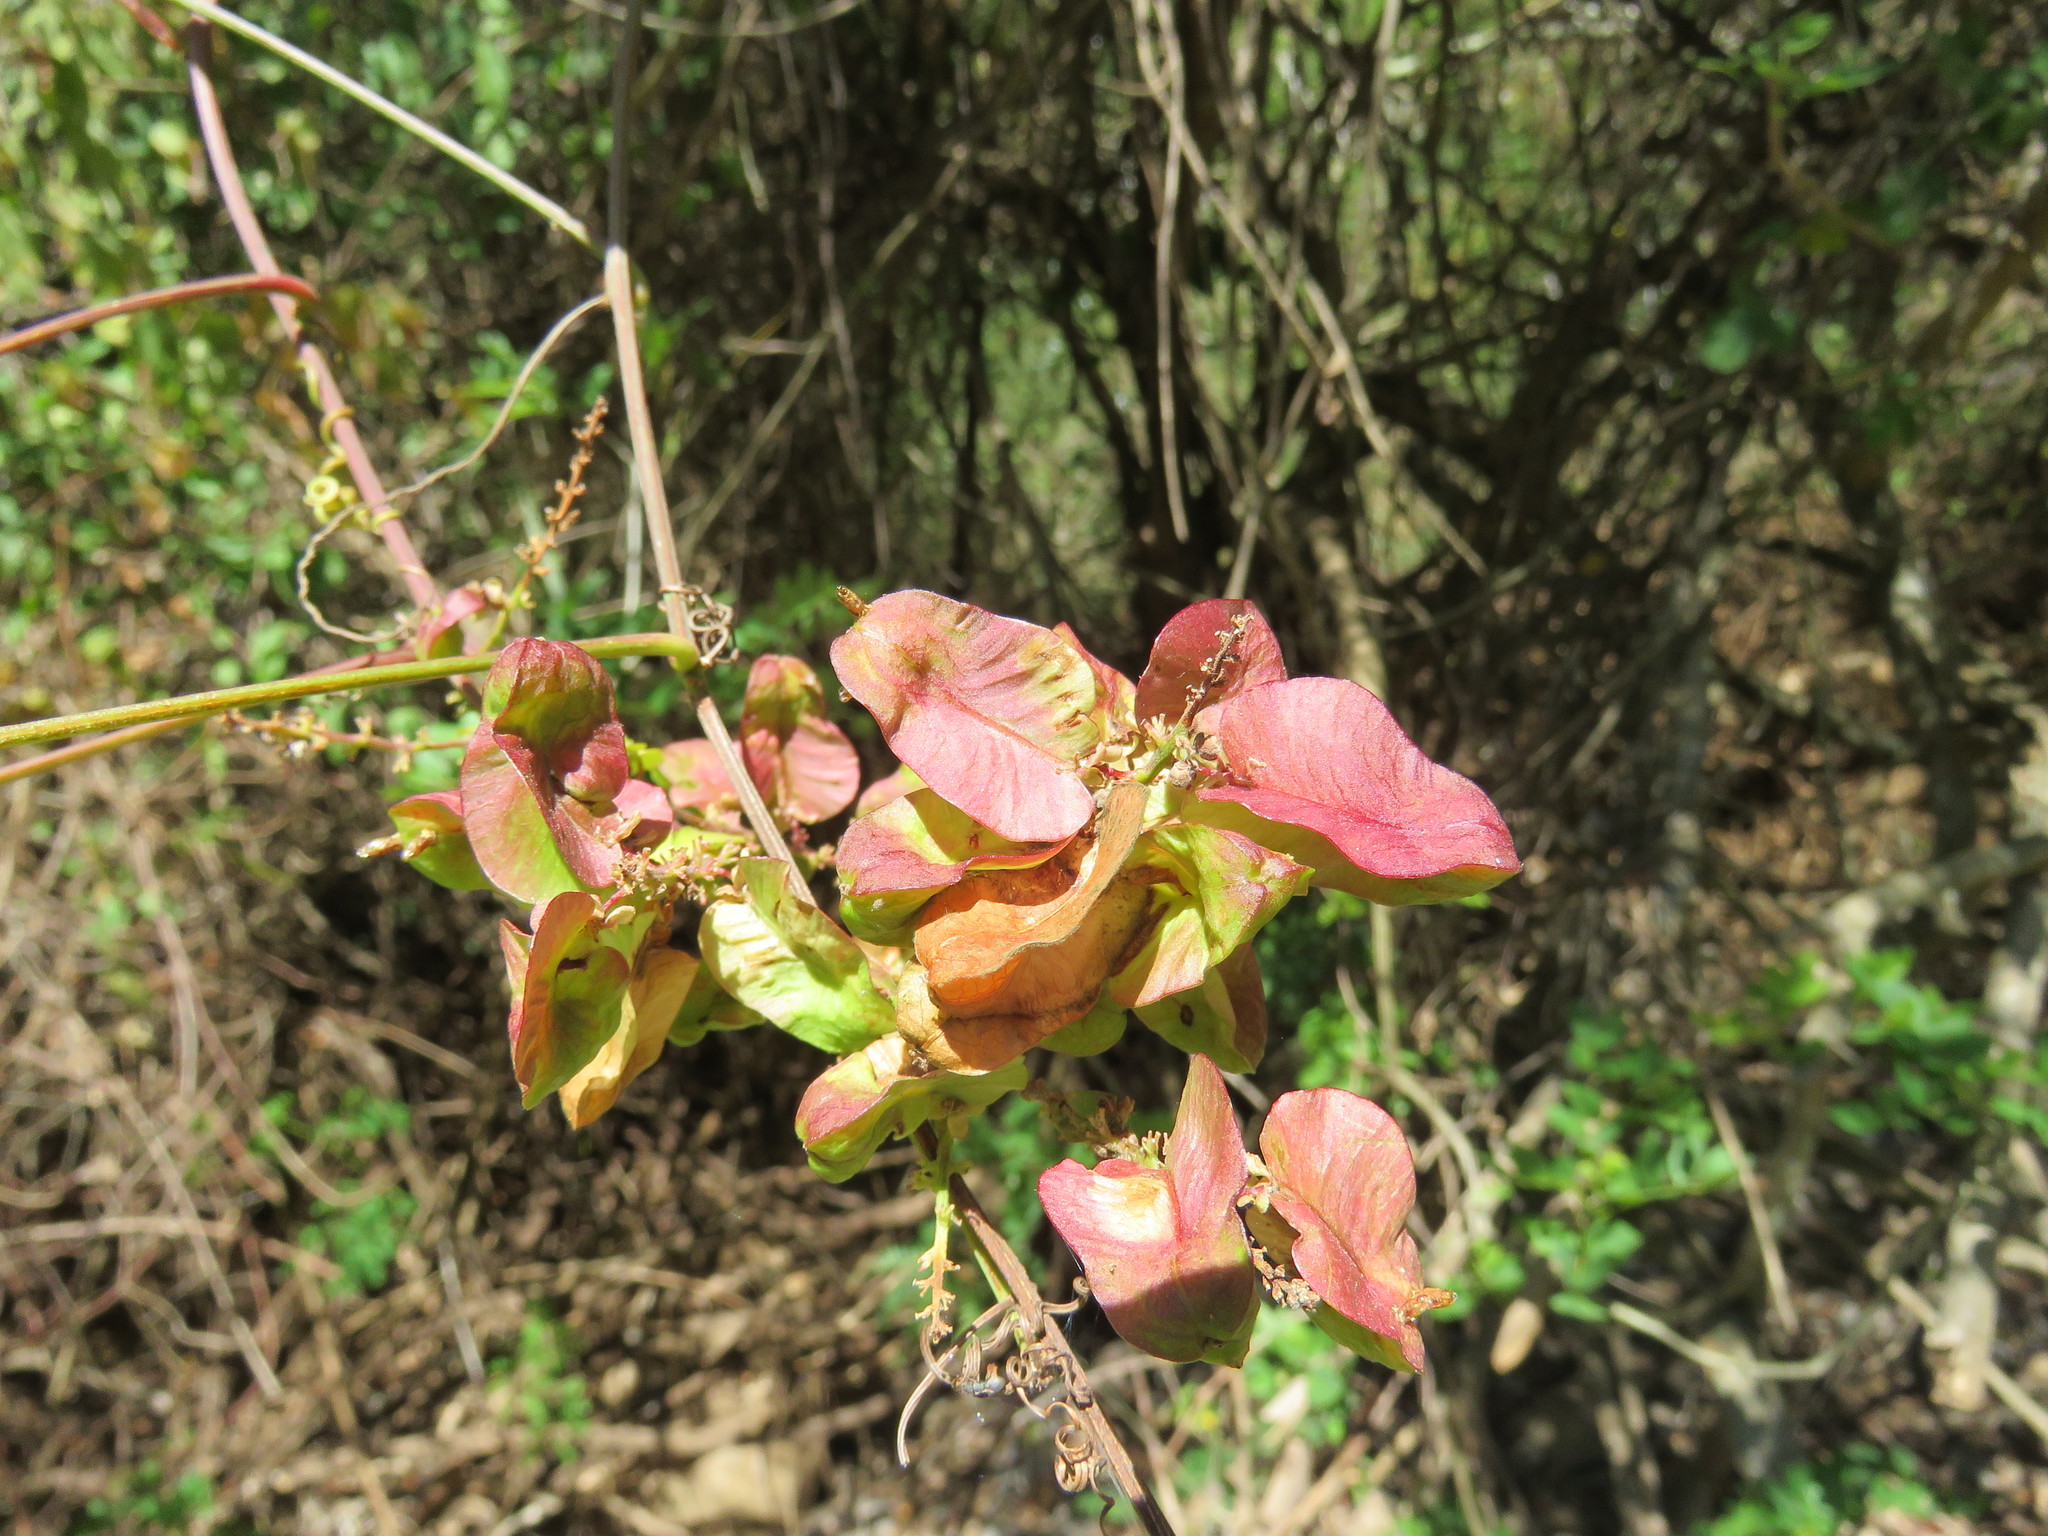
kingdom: Plantae
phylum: Tracheophyta
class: Magnoliopsida
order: Sapindales
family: Sapindaceae
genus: Serjania
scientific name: Serjania racemosa
